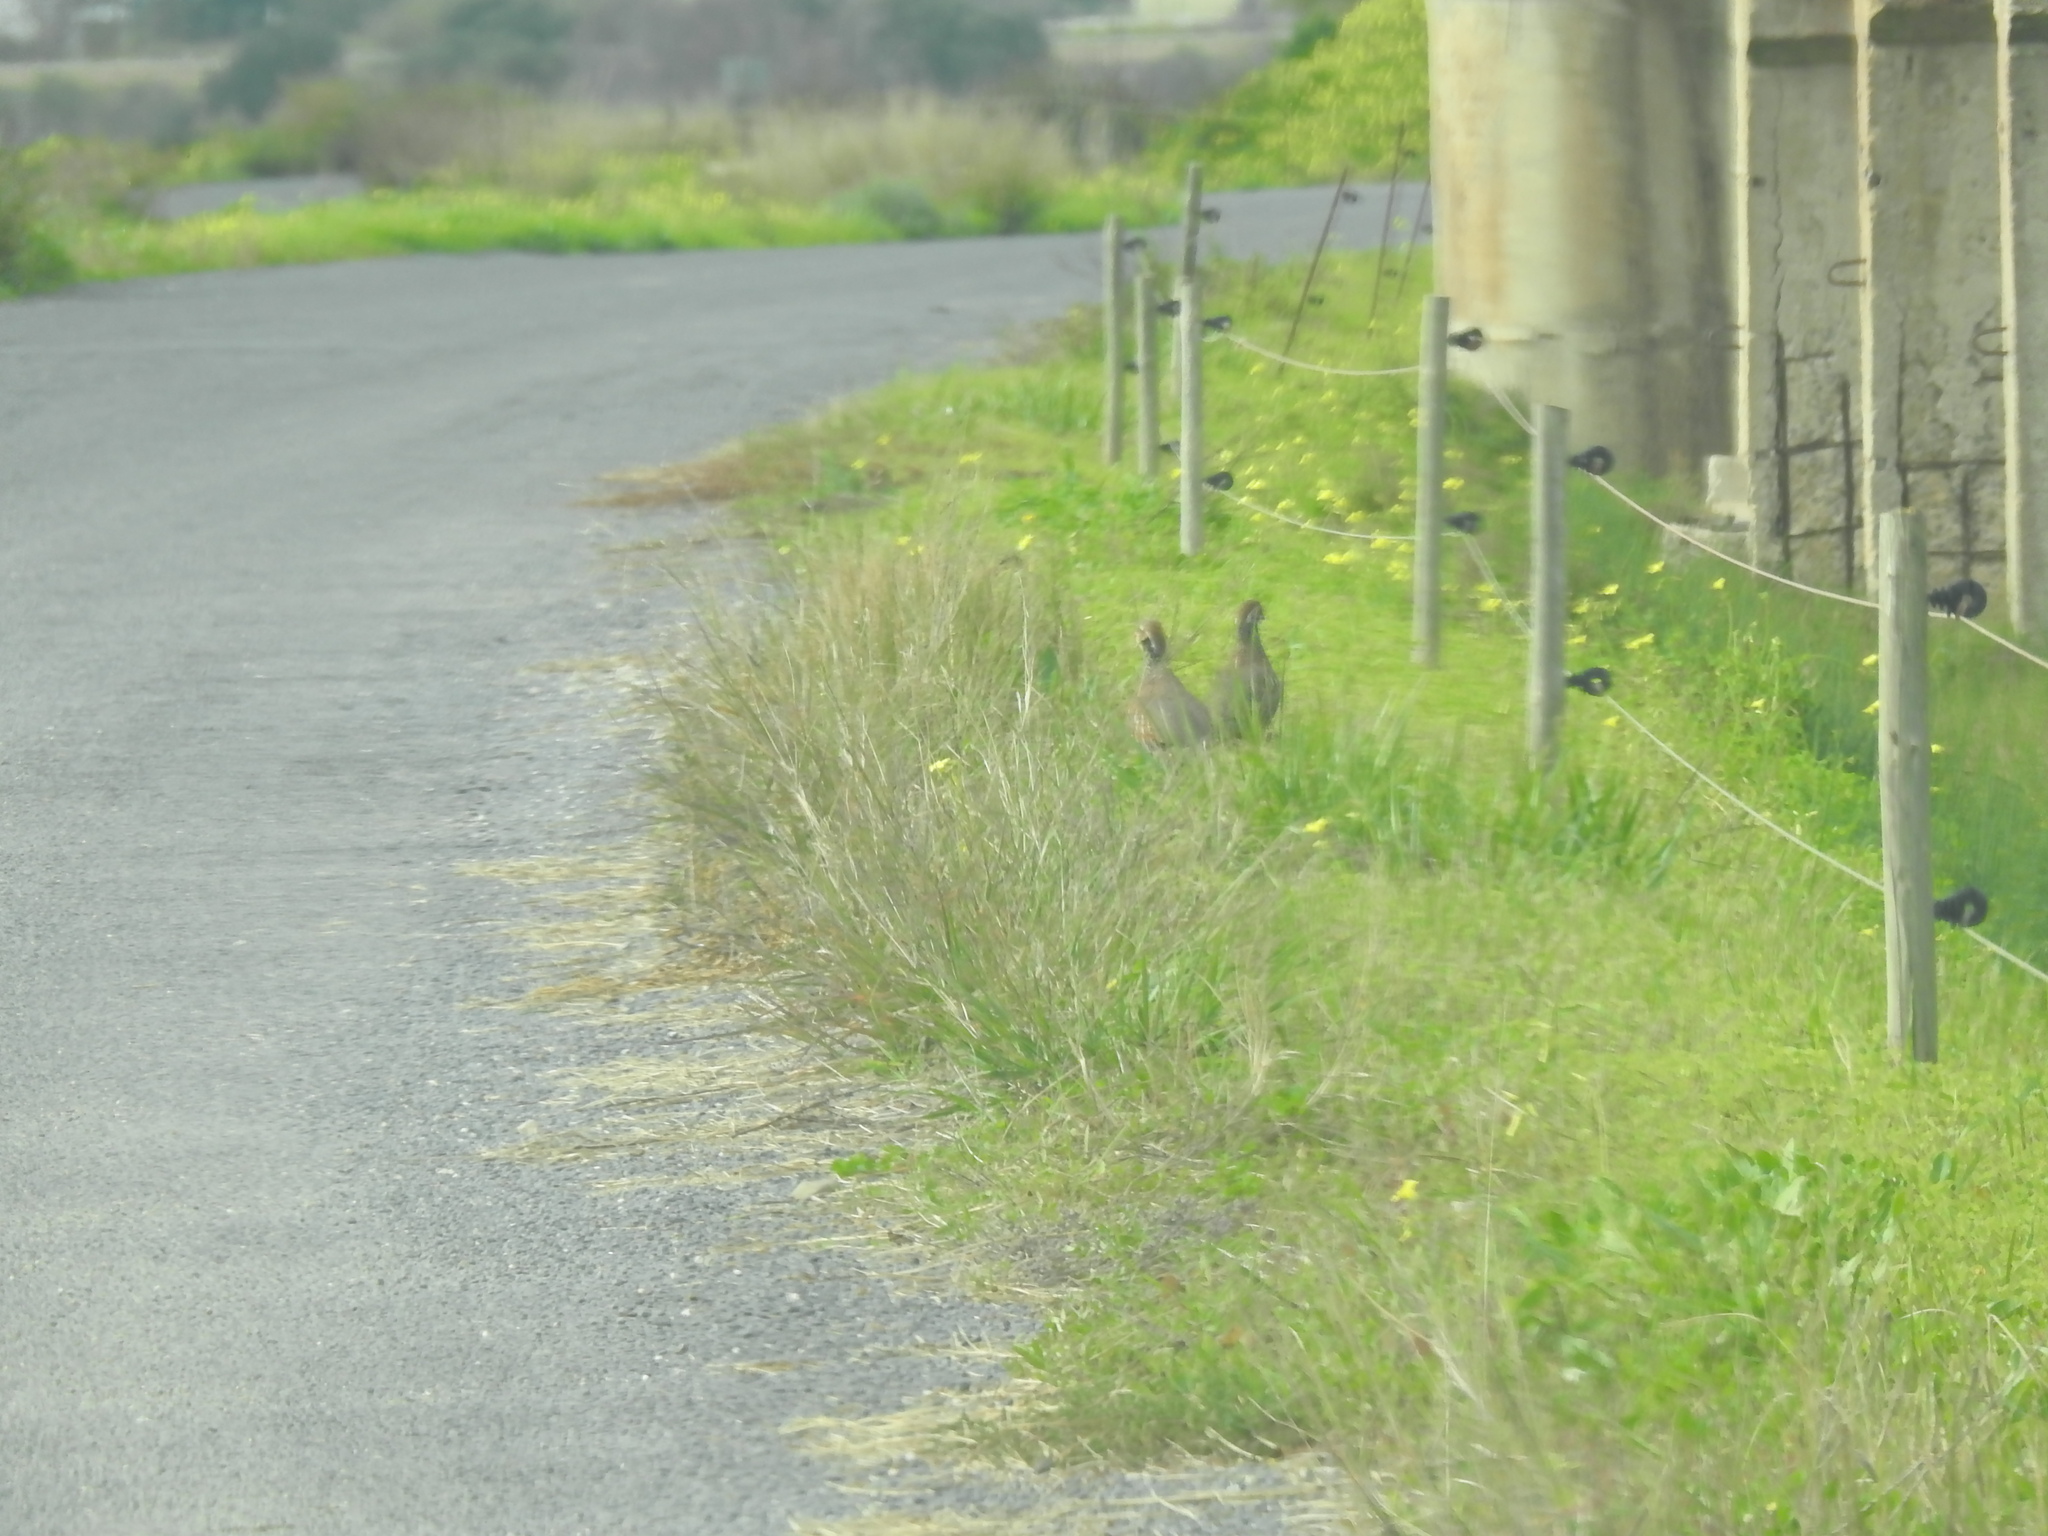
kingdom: Animalia
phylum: Chordata
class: Aves
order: Galliformes
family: Phasianidae
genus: Alectoris
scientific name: Alectoris rufa
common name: Red-legged partridge
